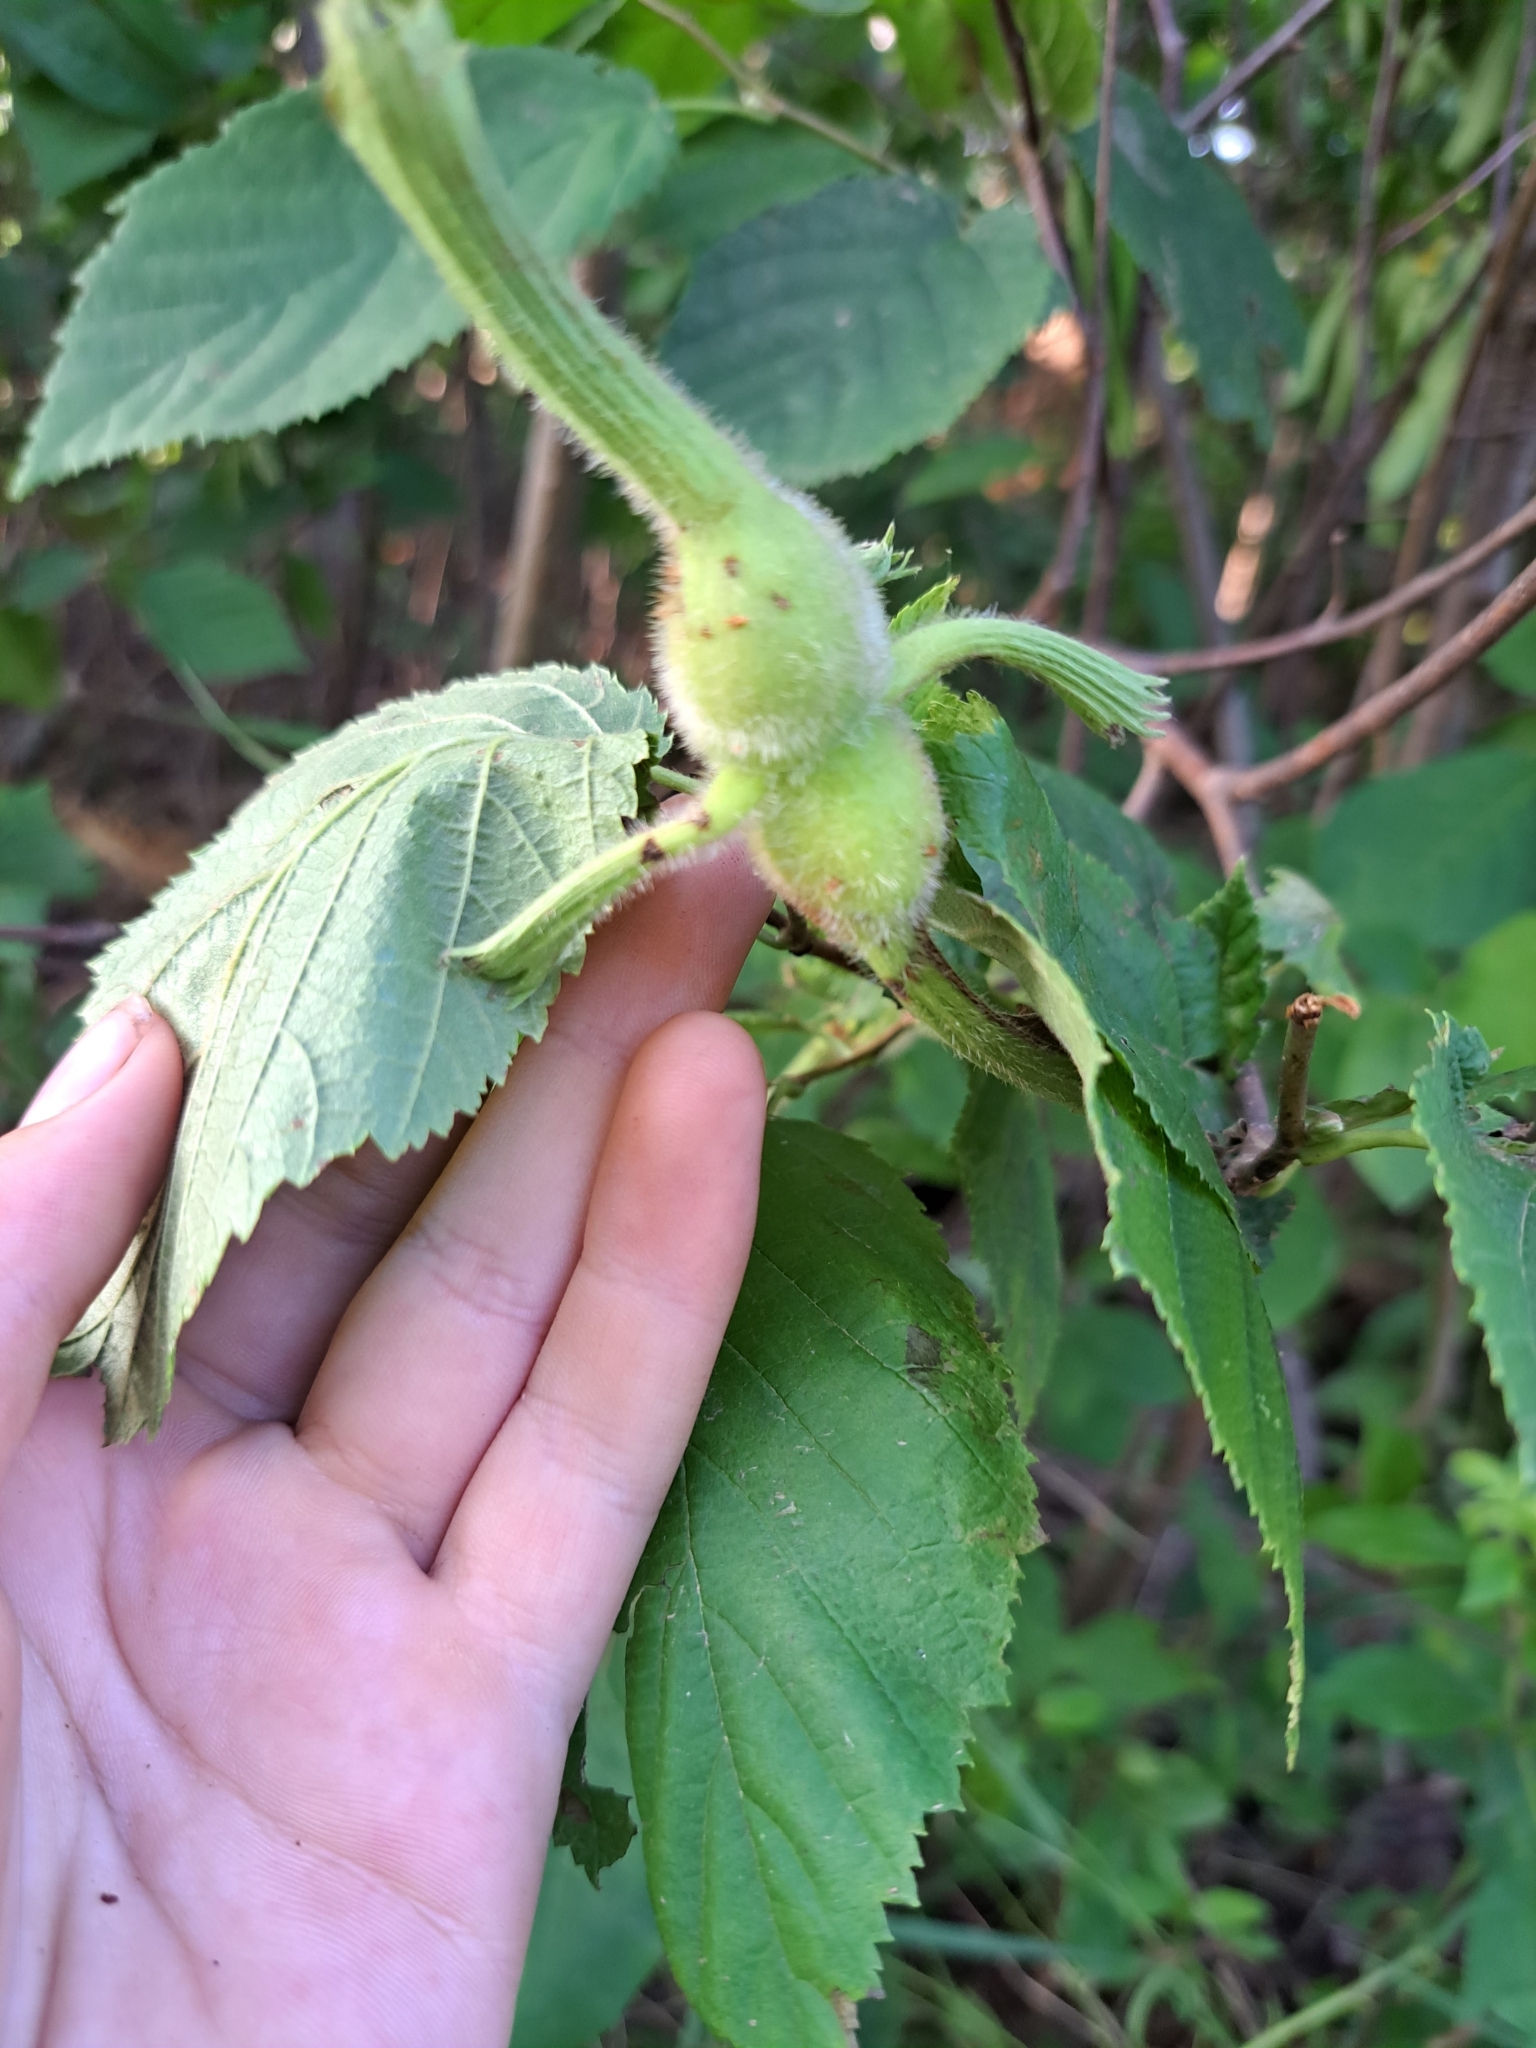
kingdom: Plantae
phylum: Tracheophyta
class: Magnoliopsida
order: Fagales
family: Betulaceae
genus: Corylus
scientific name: Corylus cornuta
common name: Beaked hazel
